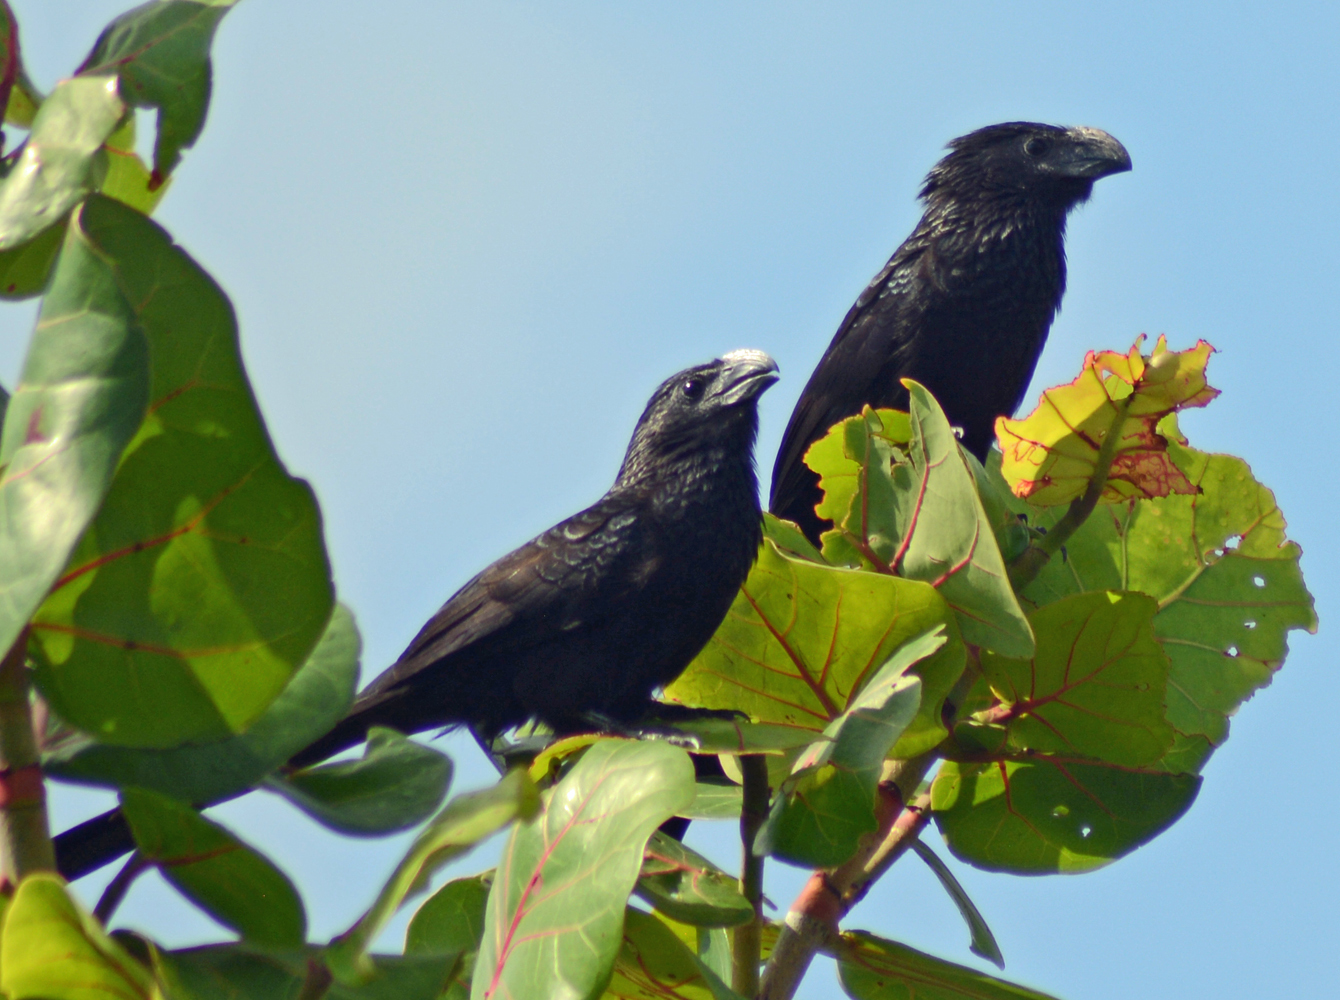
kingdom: Animalia
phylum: Chordata
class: Aves
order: Cuculiformes
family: Cuculidae
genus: Crotophaga
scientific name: Crotophaga sulcirostris
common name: Groove-billed ani
